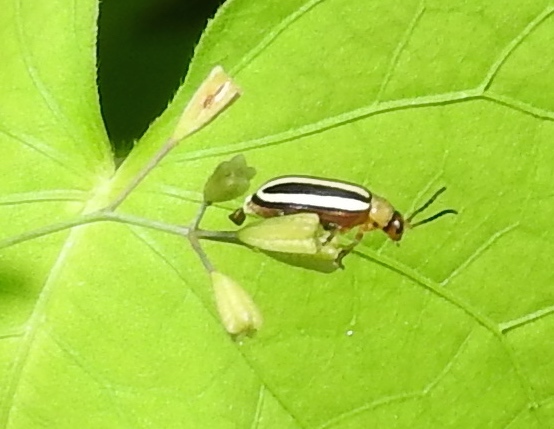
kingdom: Animalia
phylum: Arthropoda
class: Insecta
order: Coleoptera
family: Chrysomelidae
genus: Systena
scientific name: Systena
